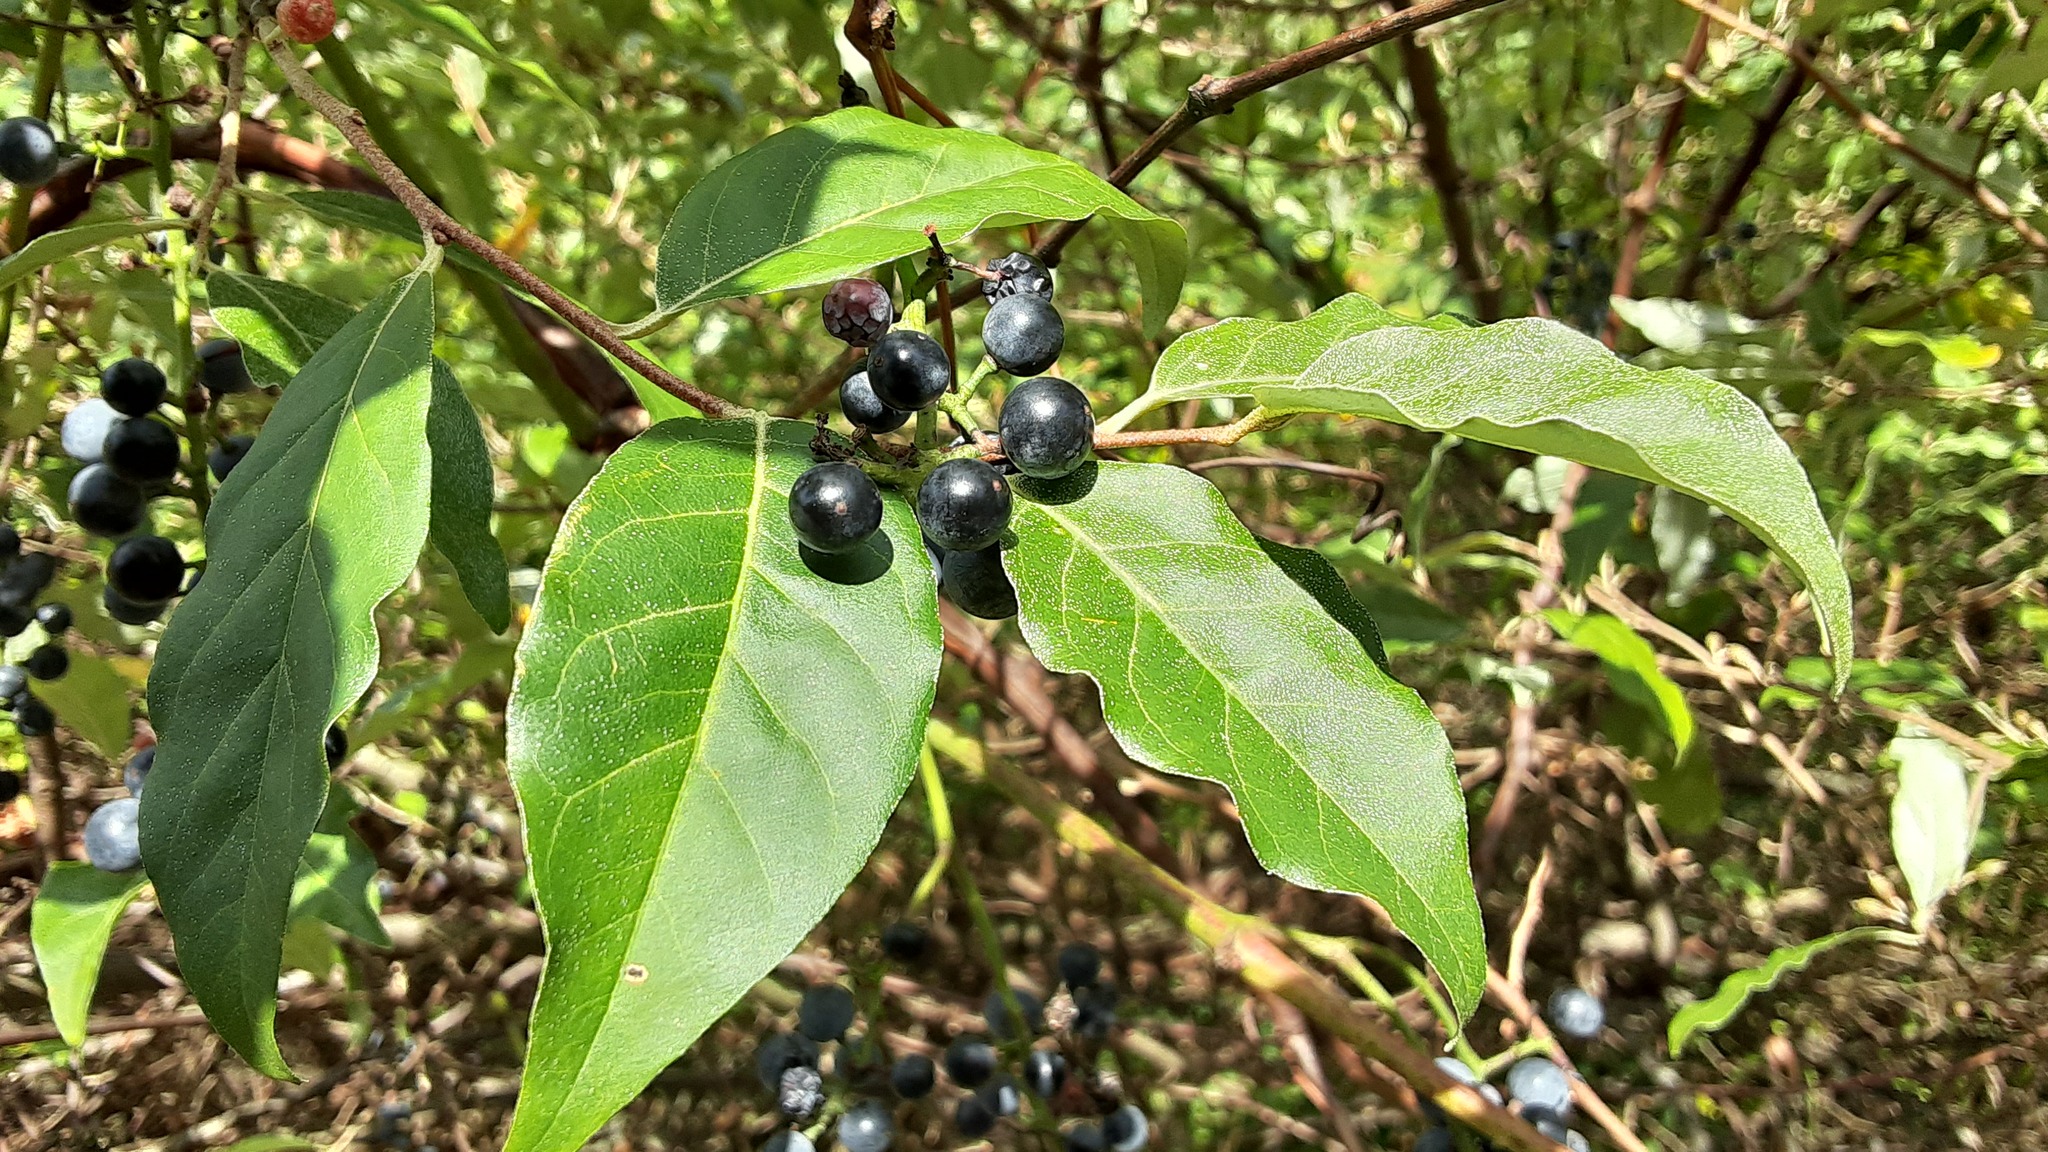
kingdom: Plantae
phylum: Tracheophyta
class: Magnoliopsida
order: Rosales
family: Elaeagnaceae
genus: Elaeagnus
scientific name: Elaeagnus umbellata
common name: Autumn olive
